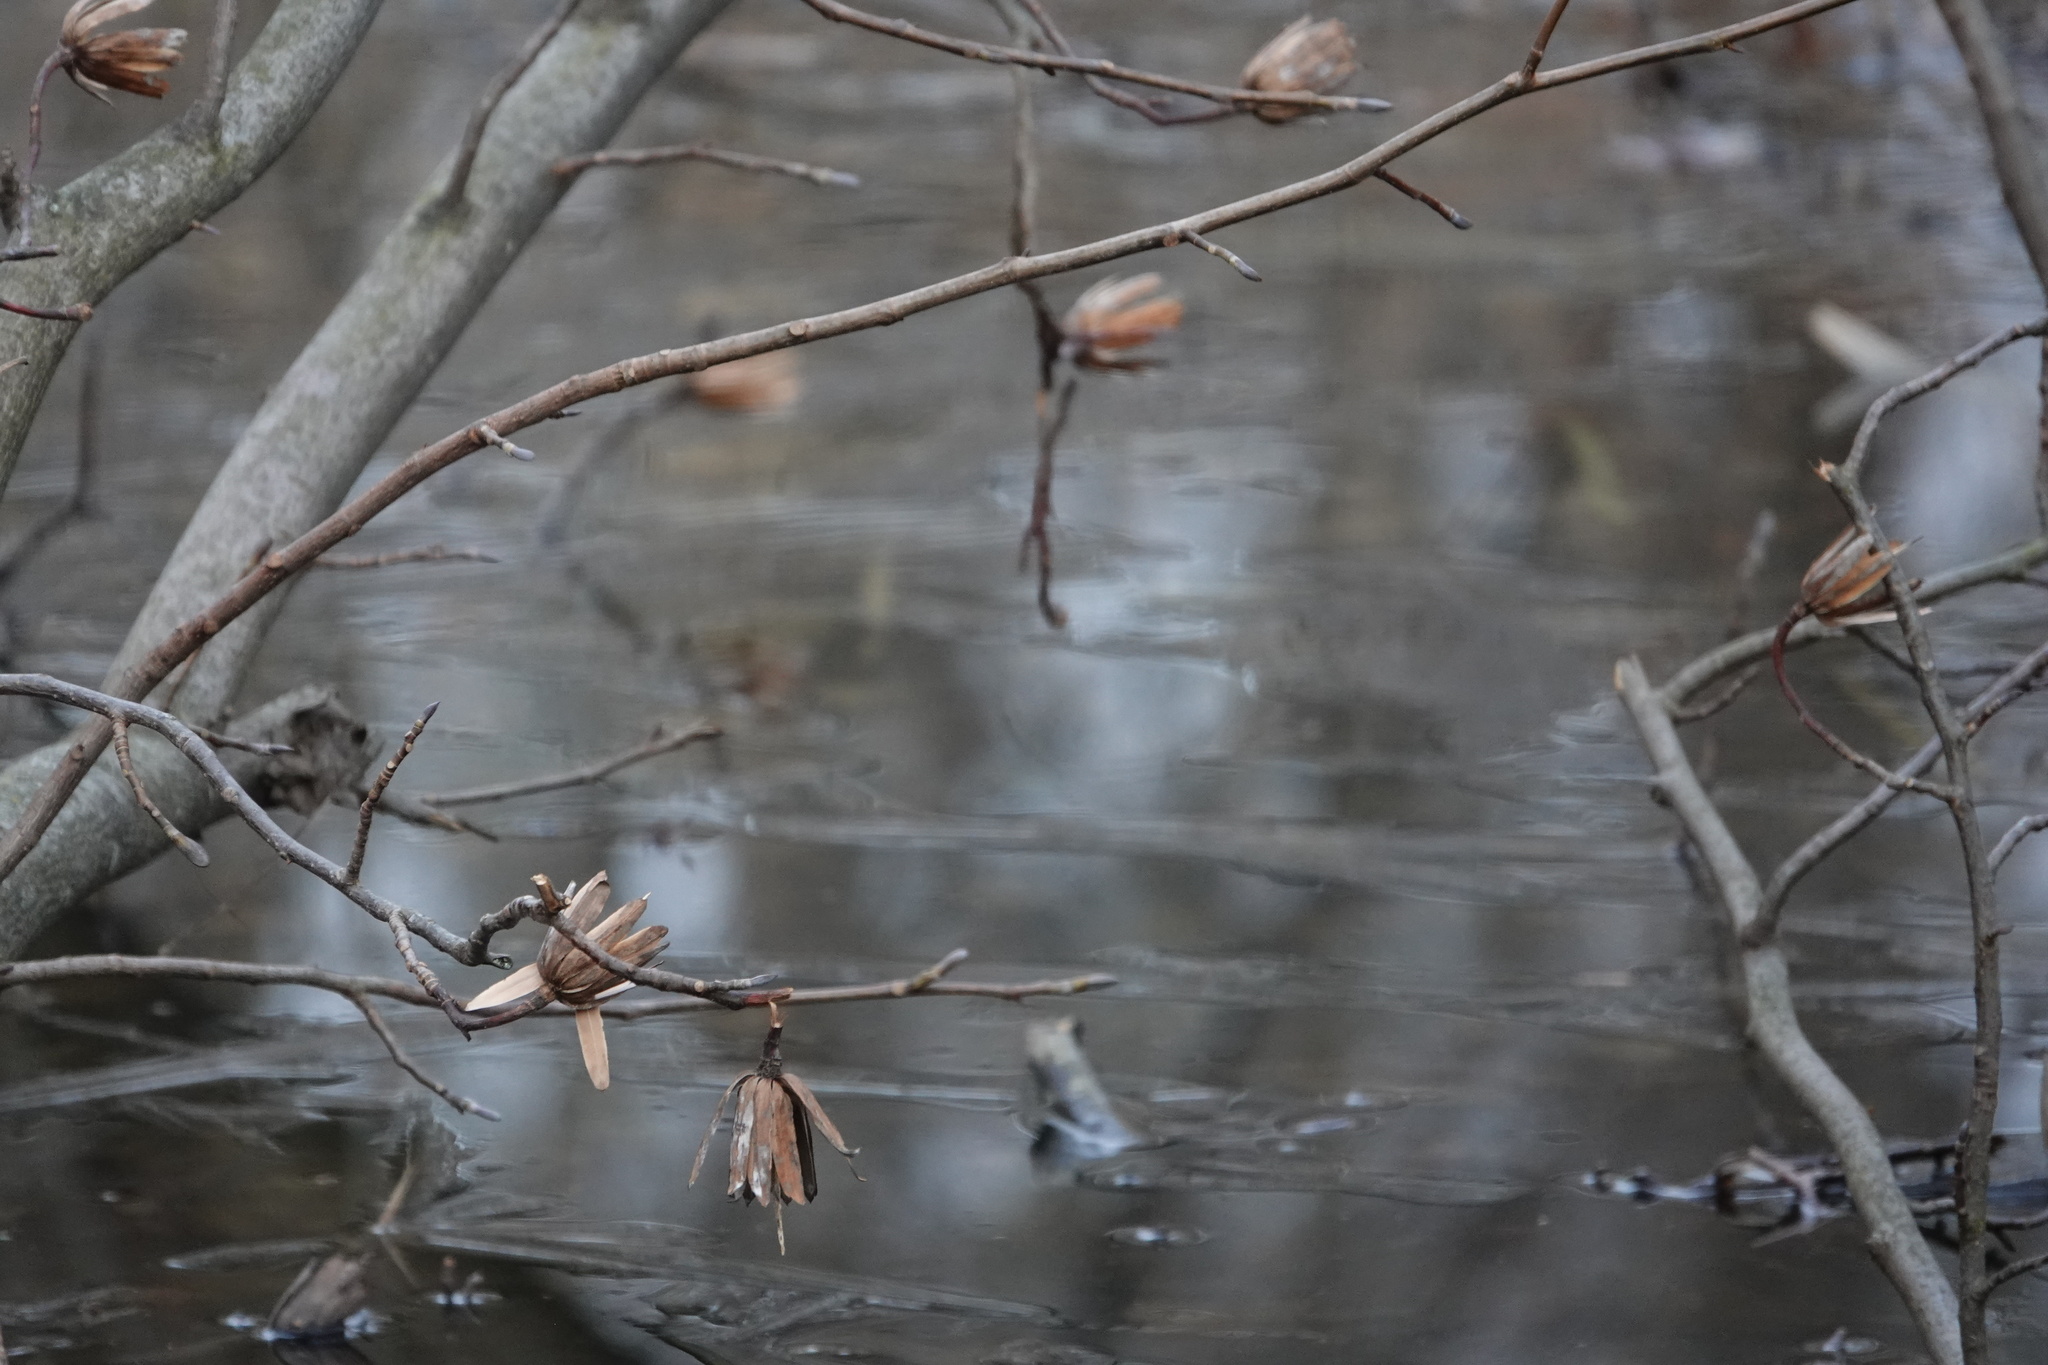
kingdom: Plantae
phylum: Tracheophyta
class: Magnoliopsida
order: Magnoliales
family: Magnoliaceae
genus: Liriodendron
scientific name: Liriodendron tulipifera
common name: Tulip tree
